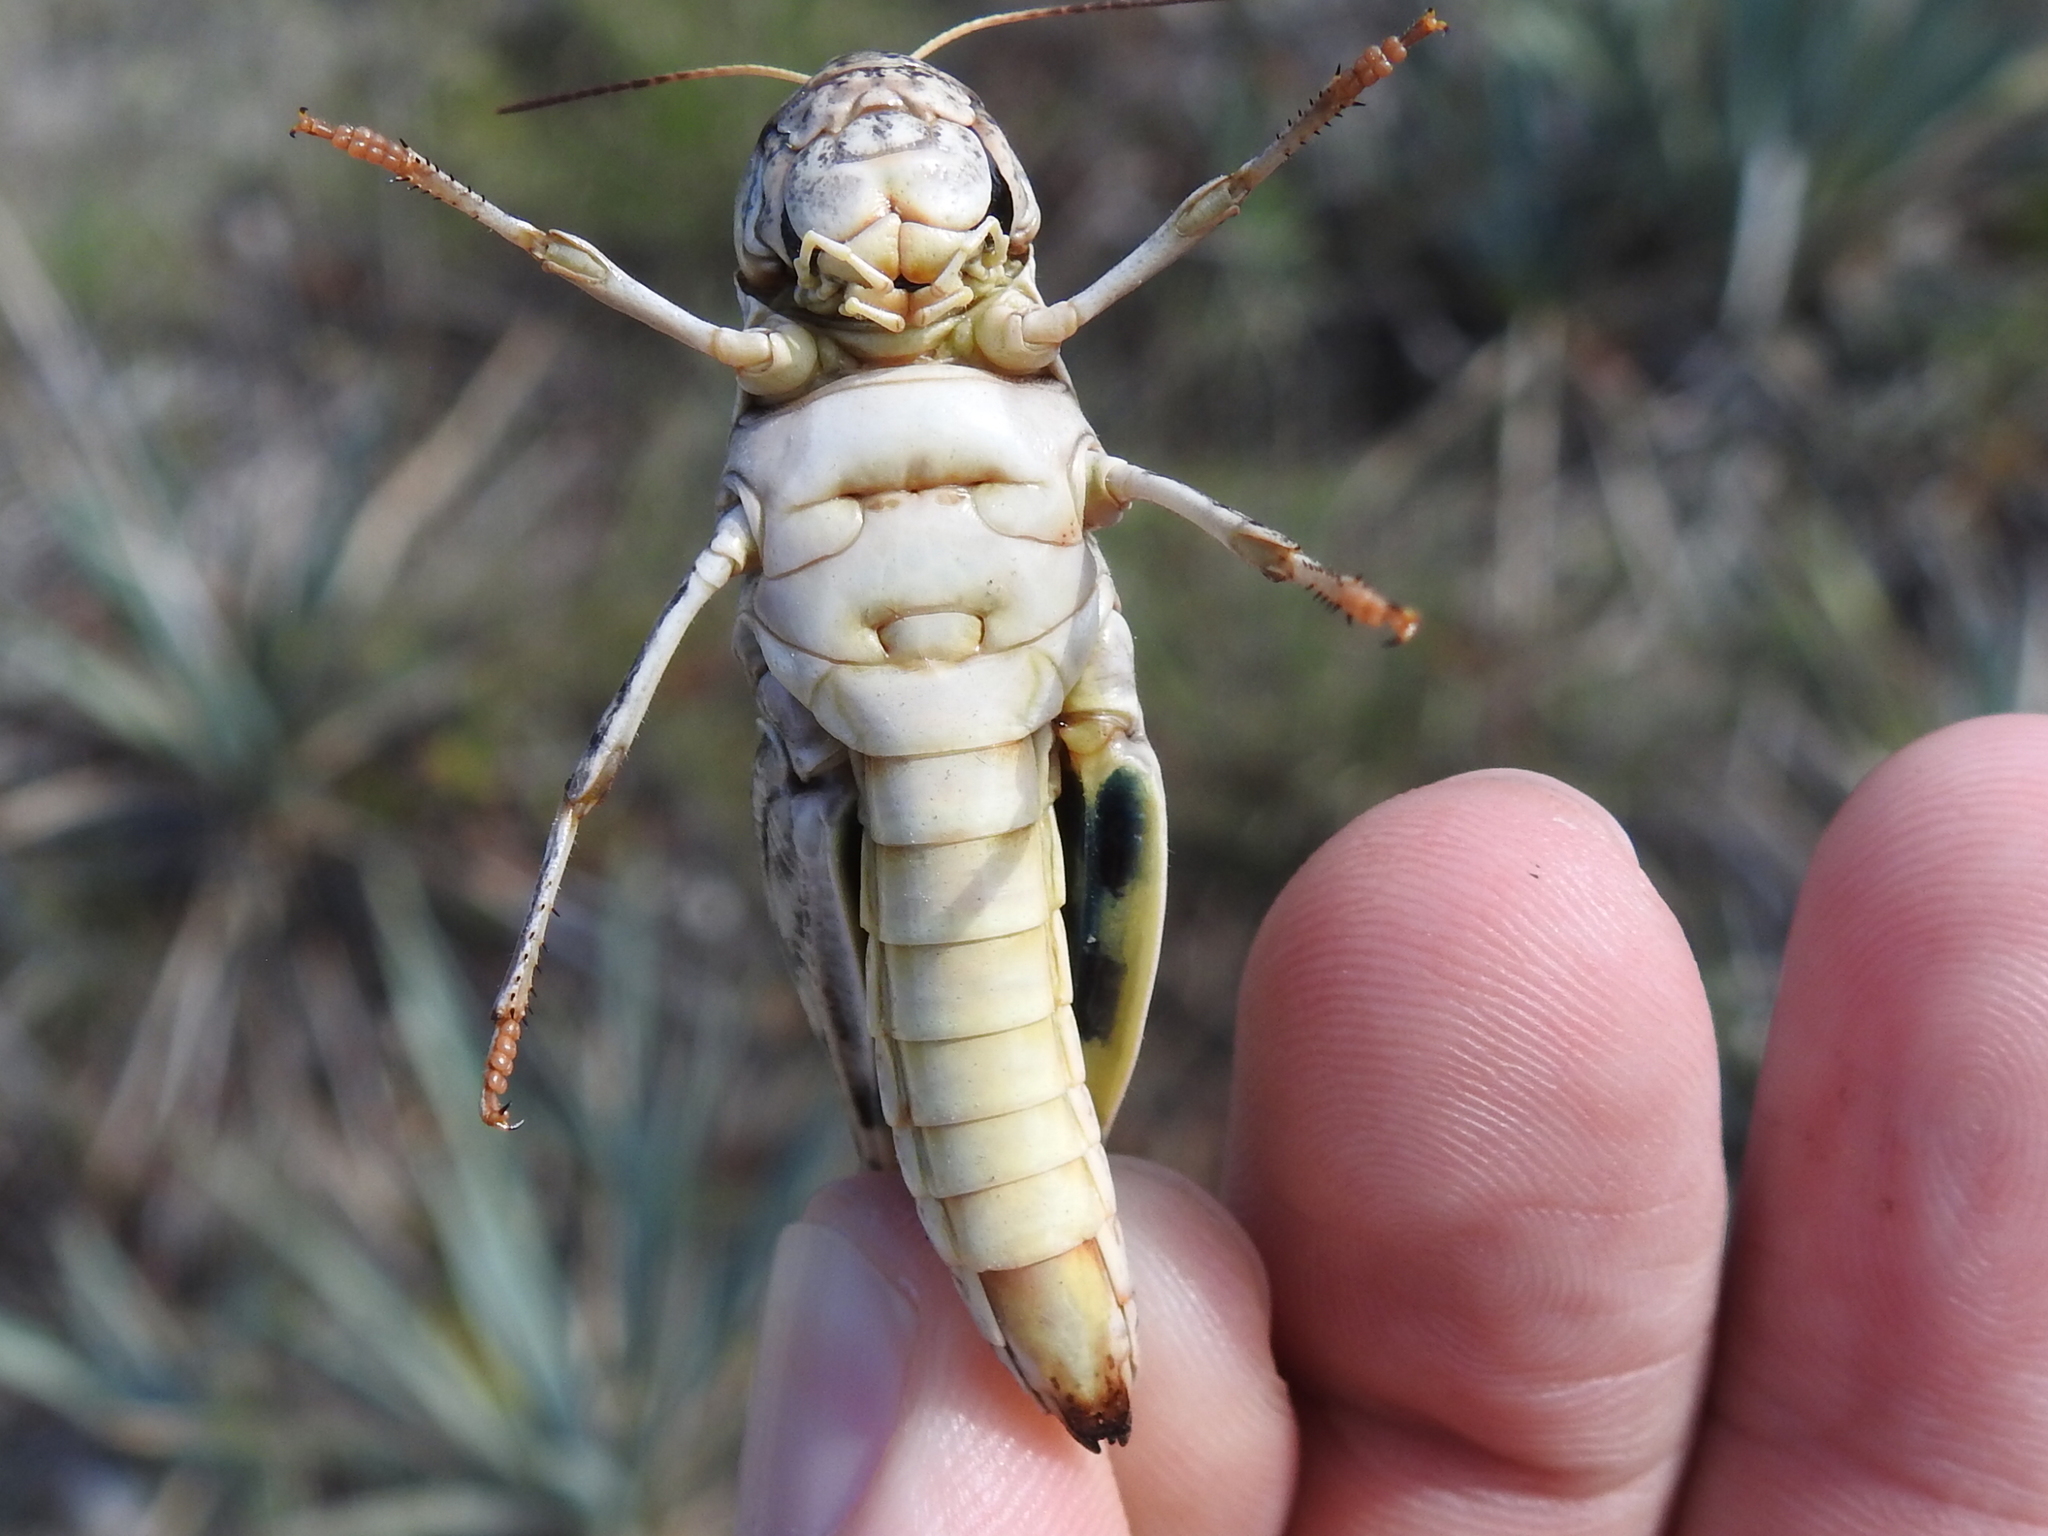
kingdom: Animalia
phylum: Arthropoda
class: Insecta
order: Orthoptera
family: Acrididae
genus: Hippiscus
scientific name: Hippiscus ocelote
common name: Wrinkled grasshopper
